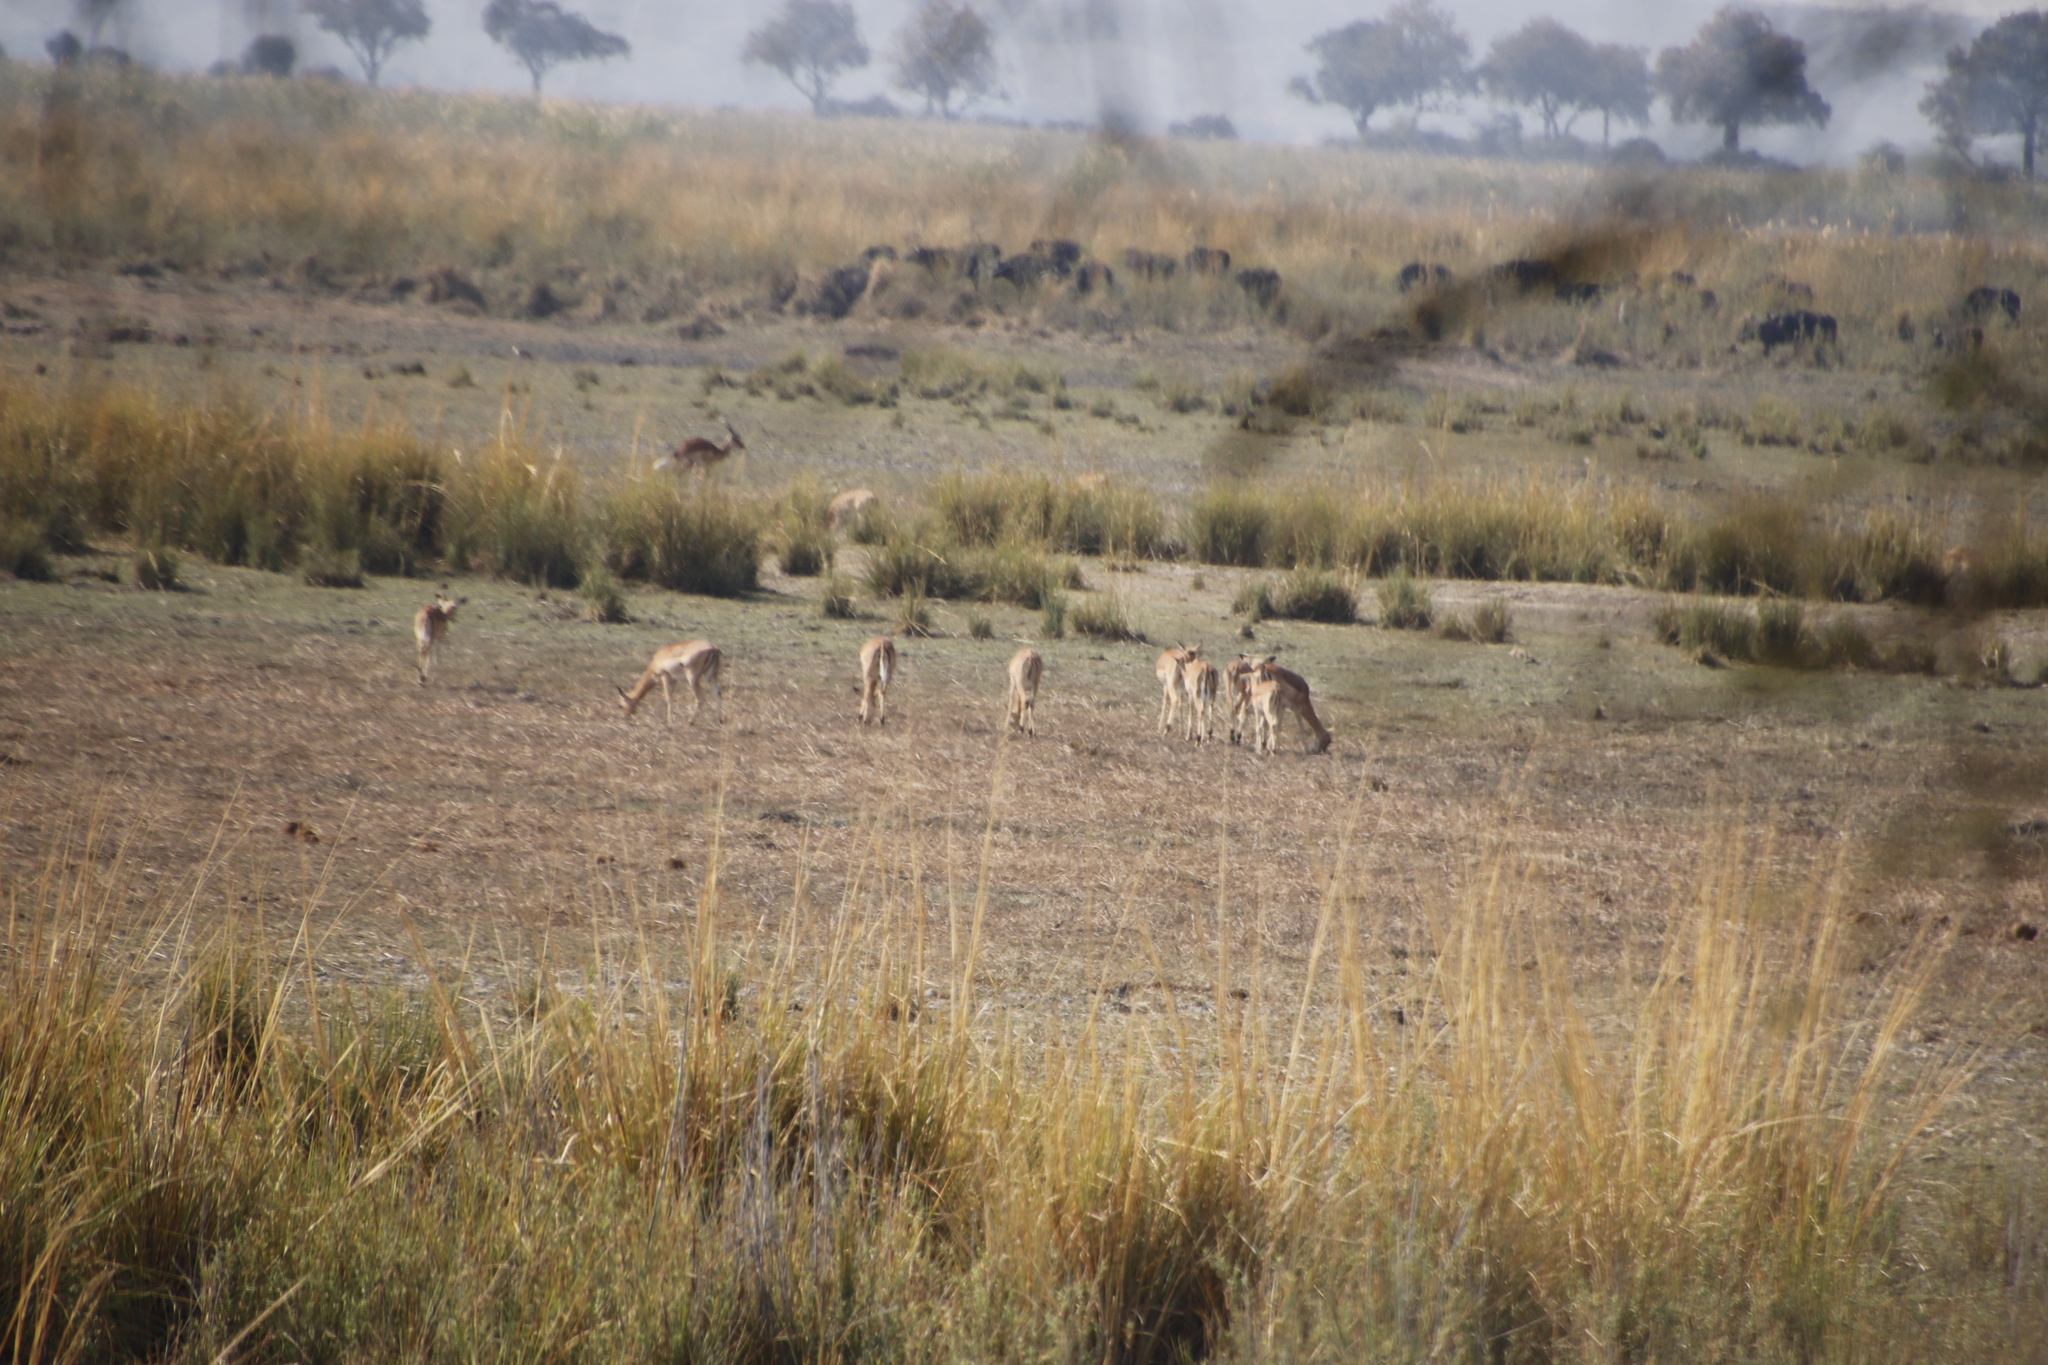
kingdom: Animalia
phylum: Chordata
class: Mammalia
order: Artiodactyla
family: Bovidae
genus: Syncerus
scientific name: Syncerus caffer
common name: African buffalo
